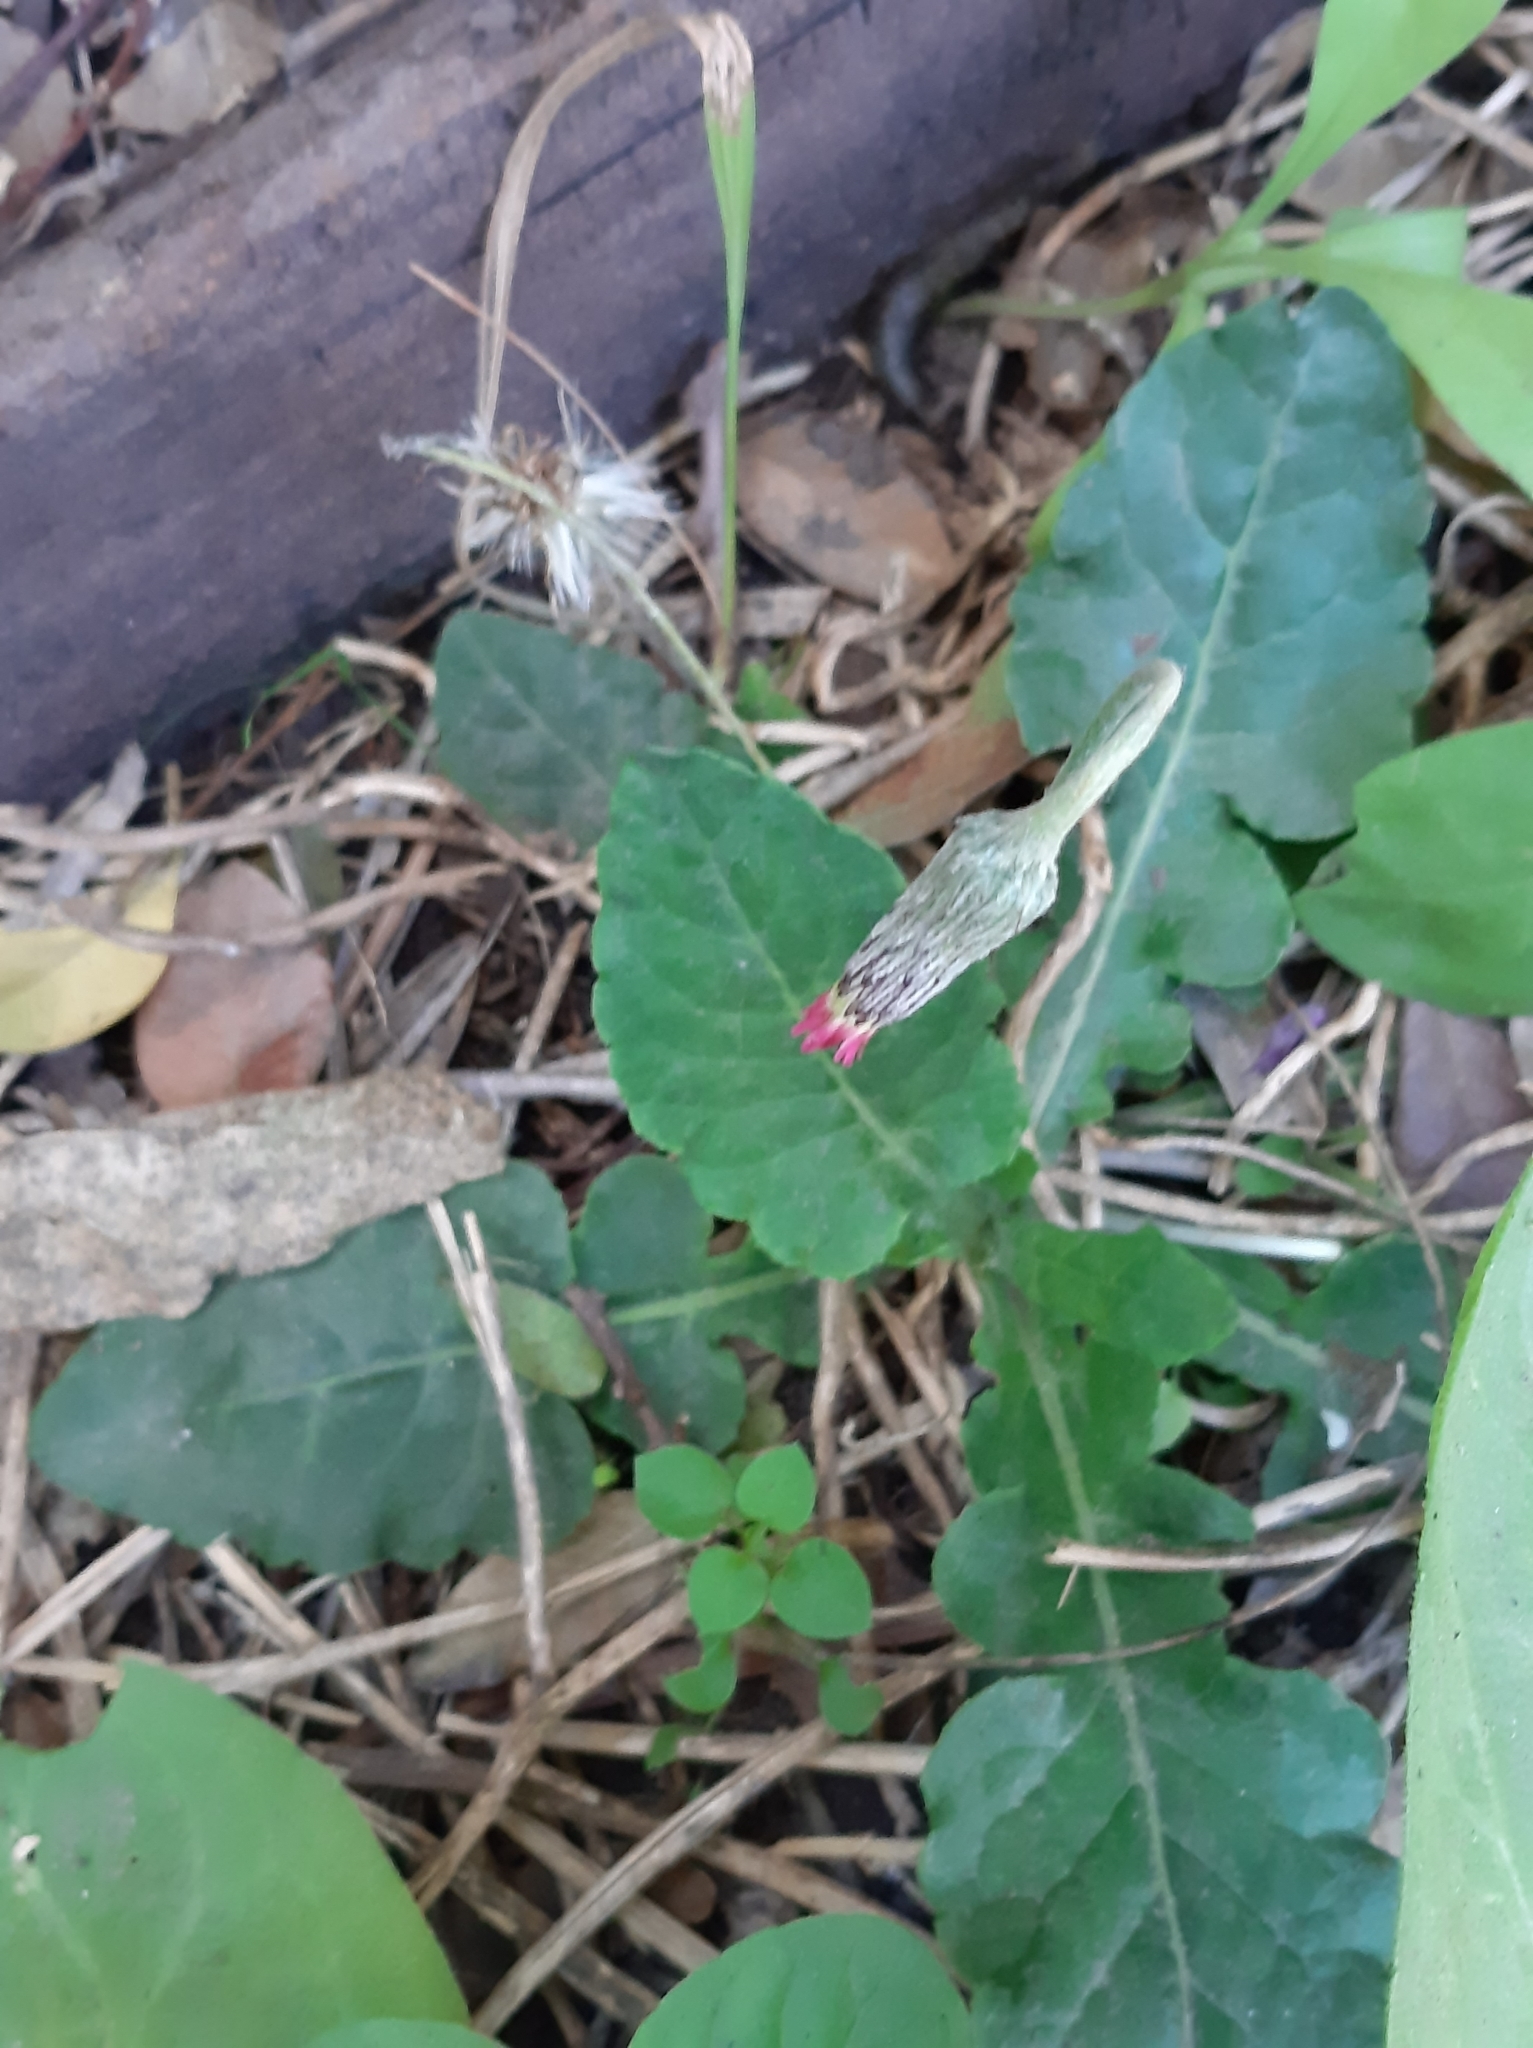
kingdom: Plantae
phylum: Tracheophyta
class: Magnoliopsida
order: Asterales
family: Asteraceae
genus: Chaptalia
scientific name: Chaptalia nutans
